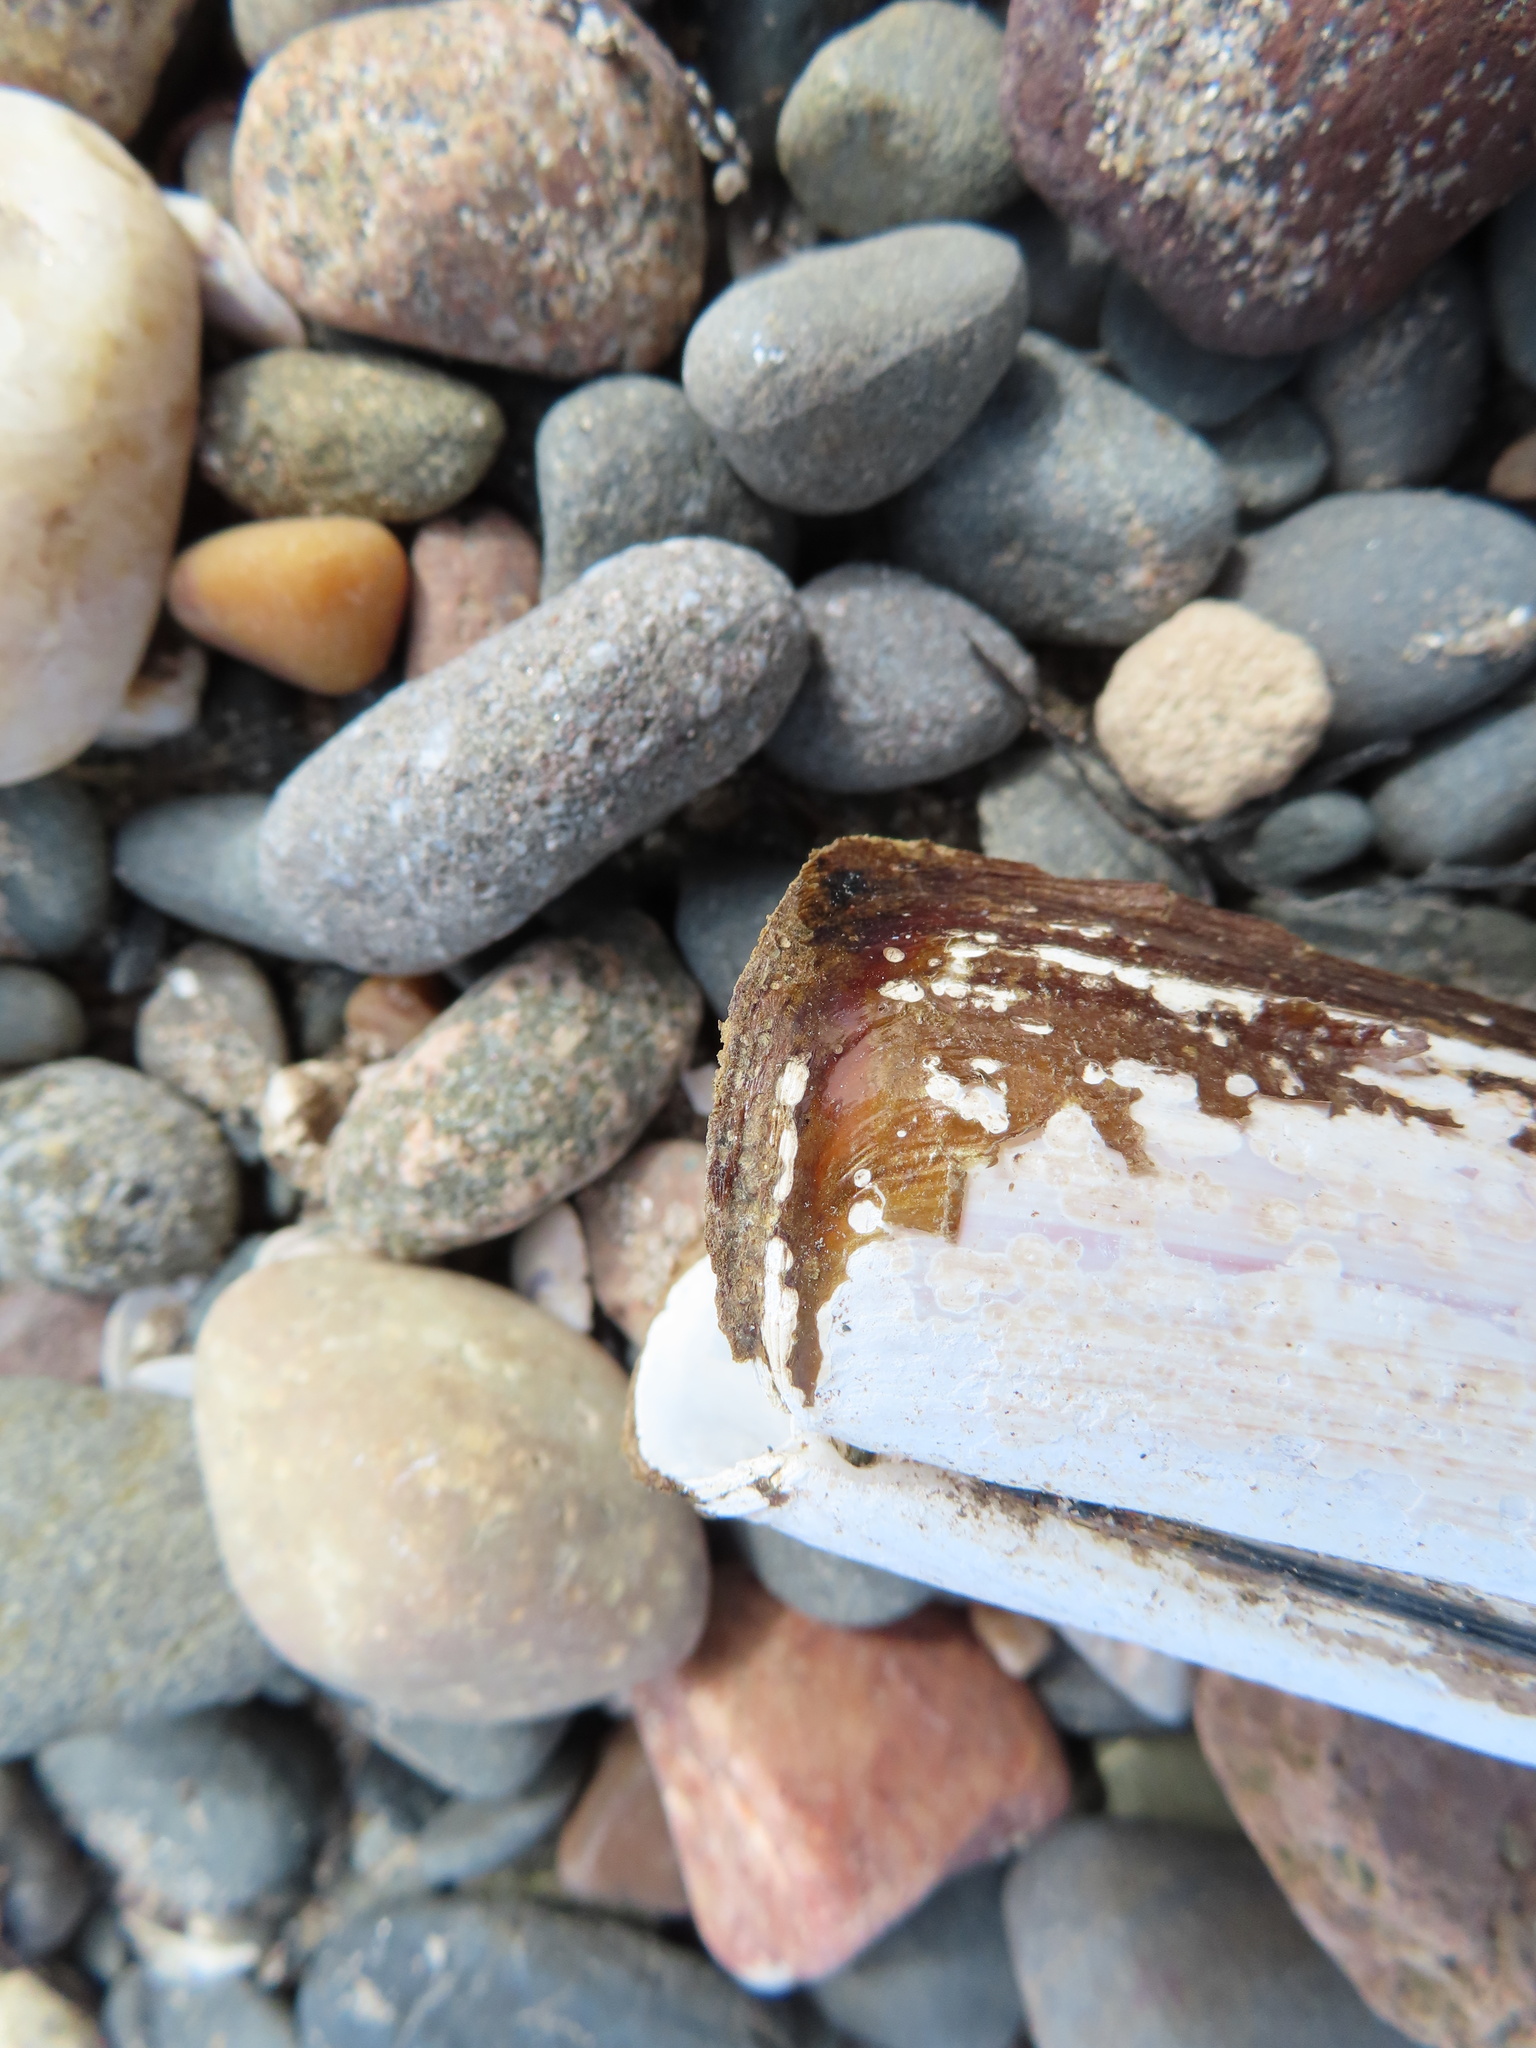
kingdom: Animalia
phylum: Mollusca
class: Bivalvia
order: Adapedonta
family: Pharidae
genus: Ensis
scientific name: Ensis siliqua
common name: Pod razor shell
